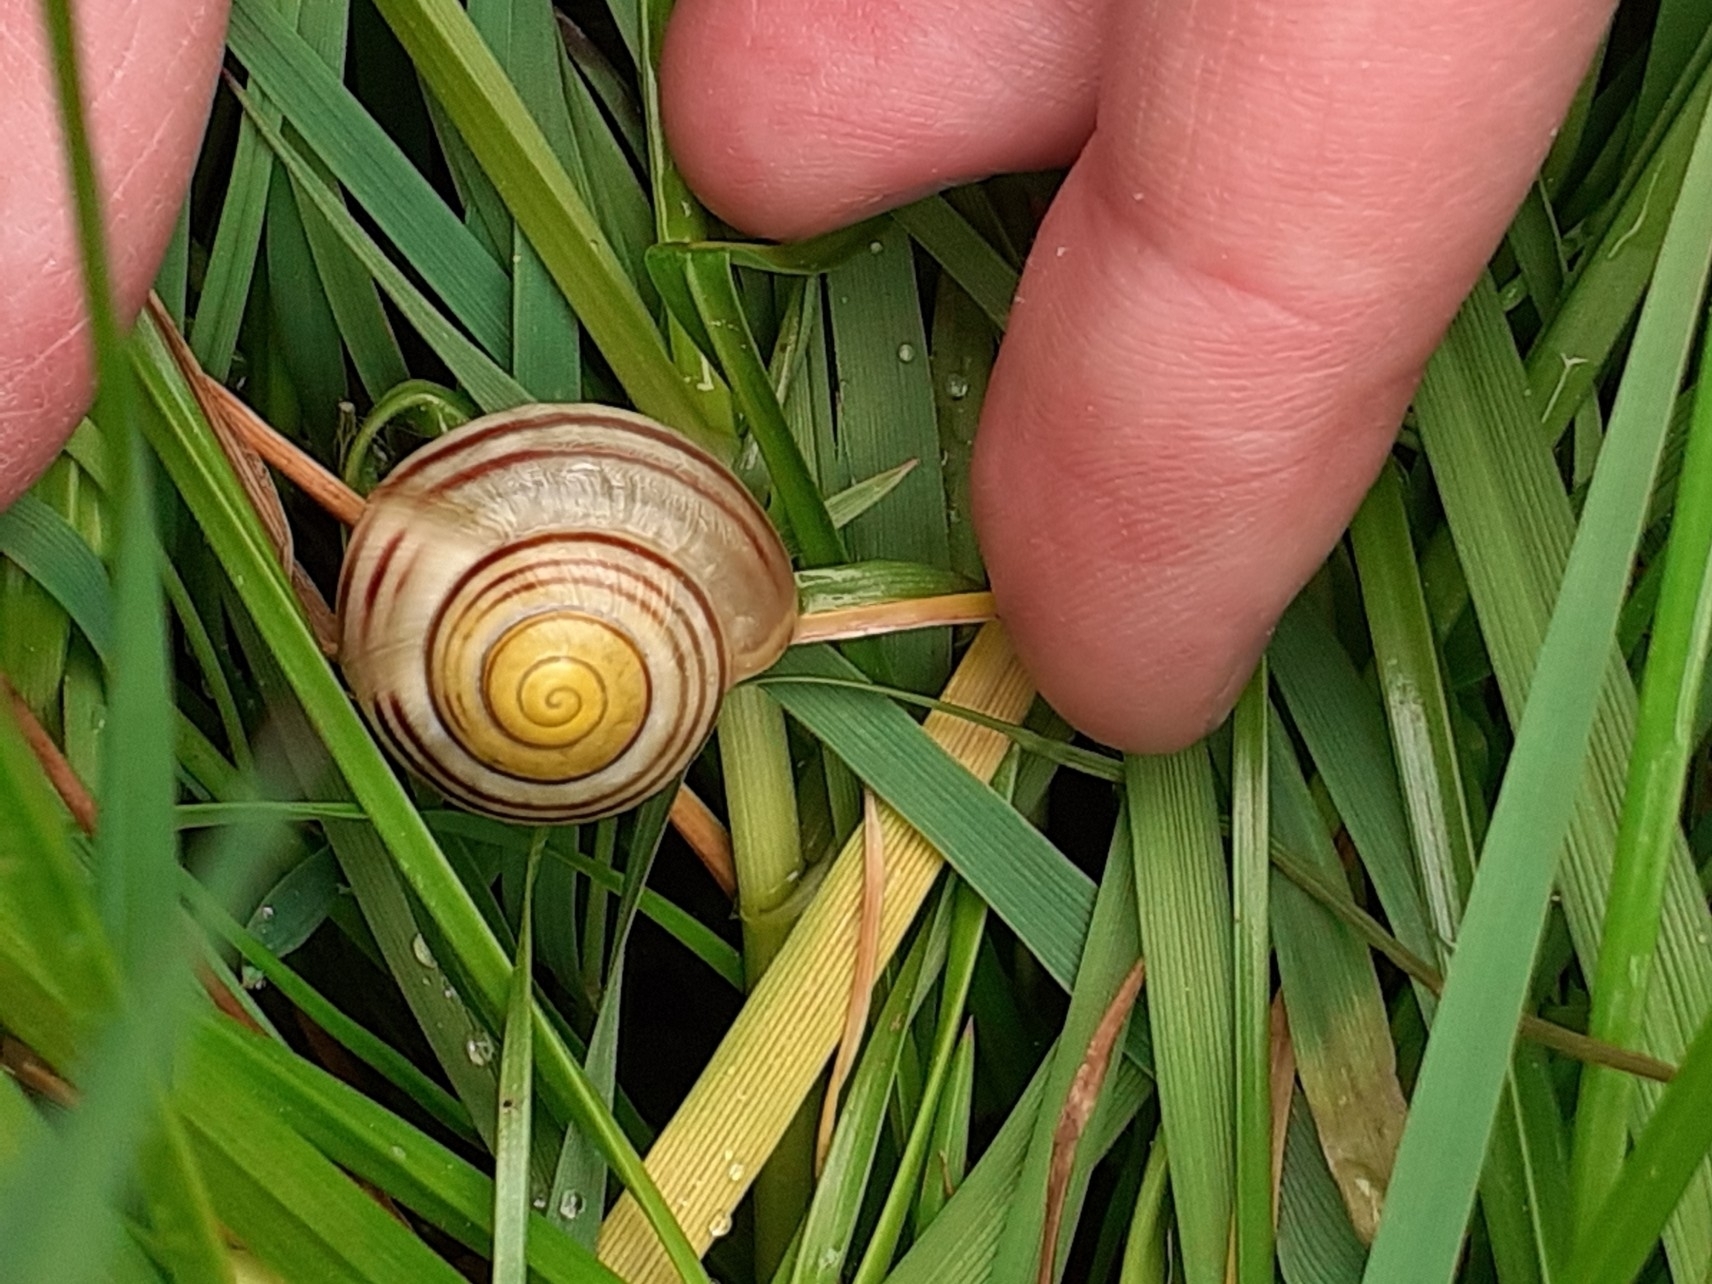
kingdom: Animalia
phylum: Mollusca
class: Gastropoda
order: Stylommatophora
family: Helicidae
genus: Cepaea
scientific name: Cepaea
